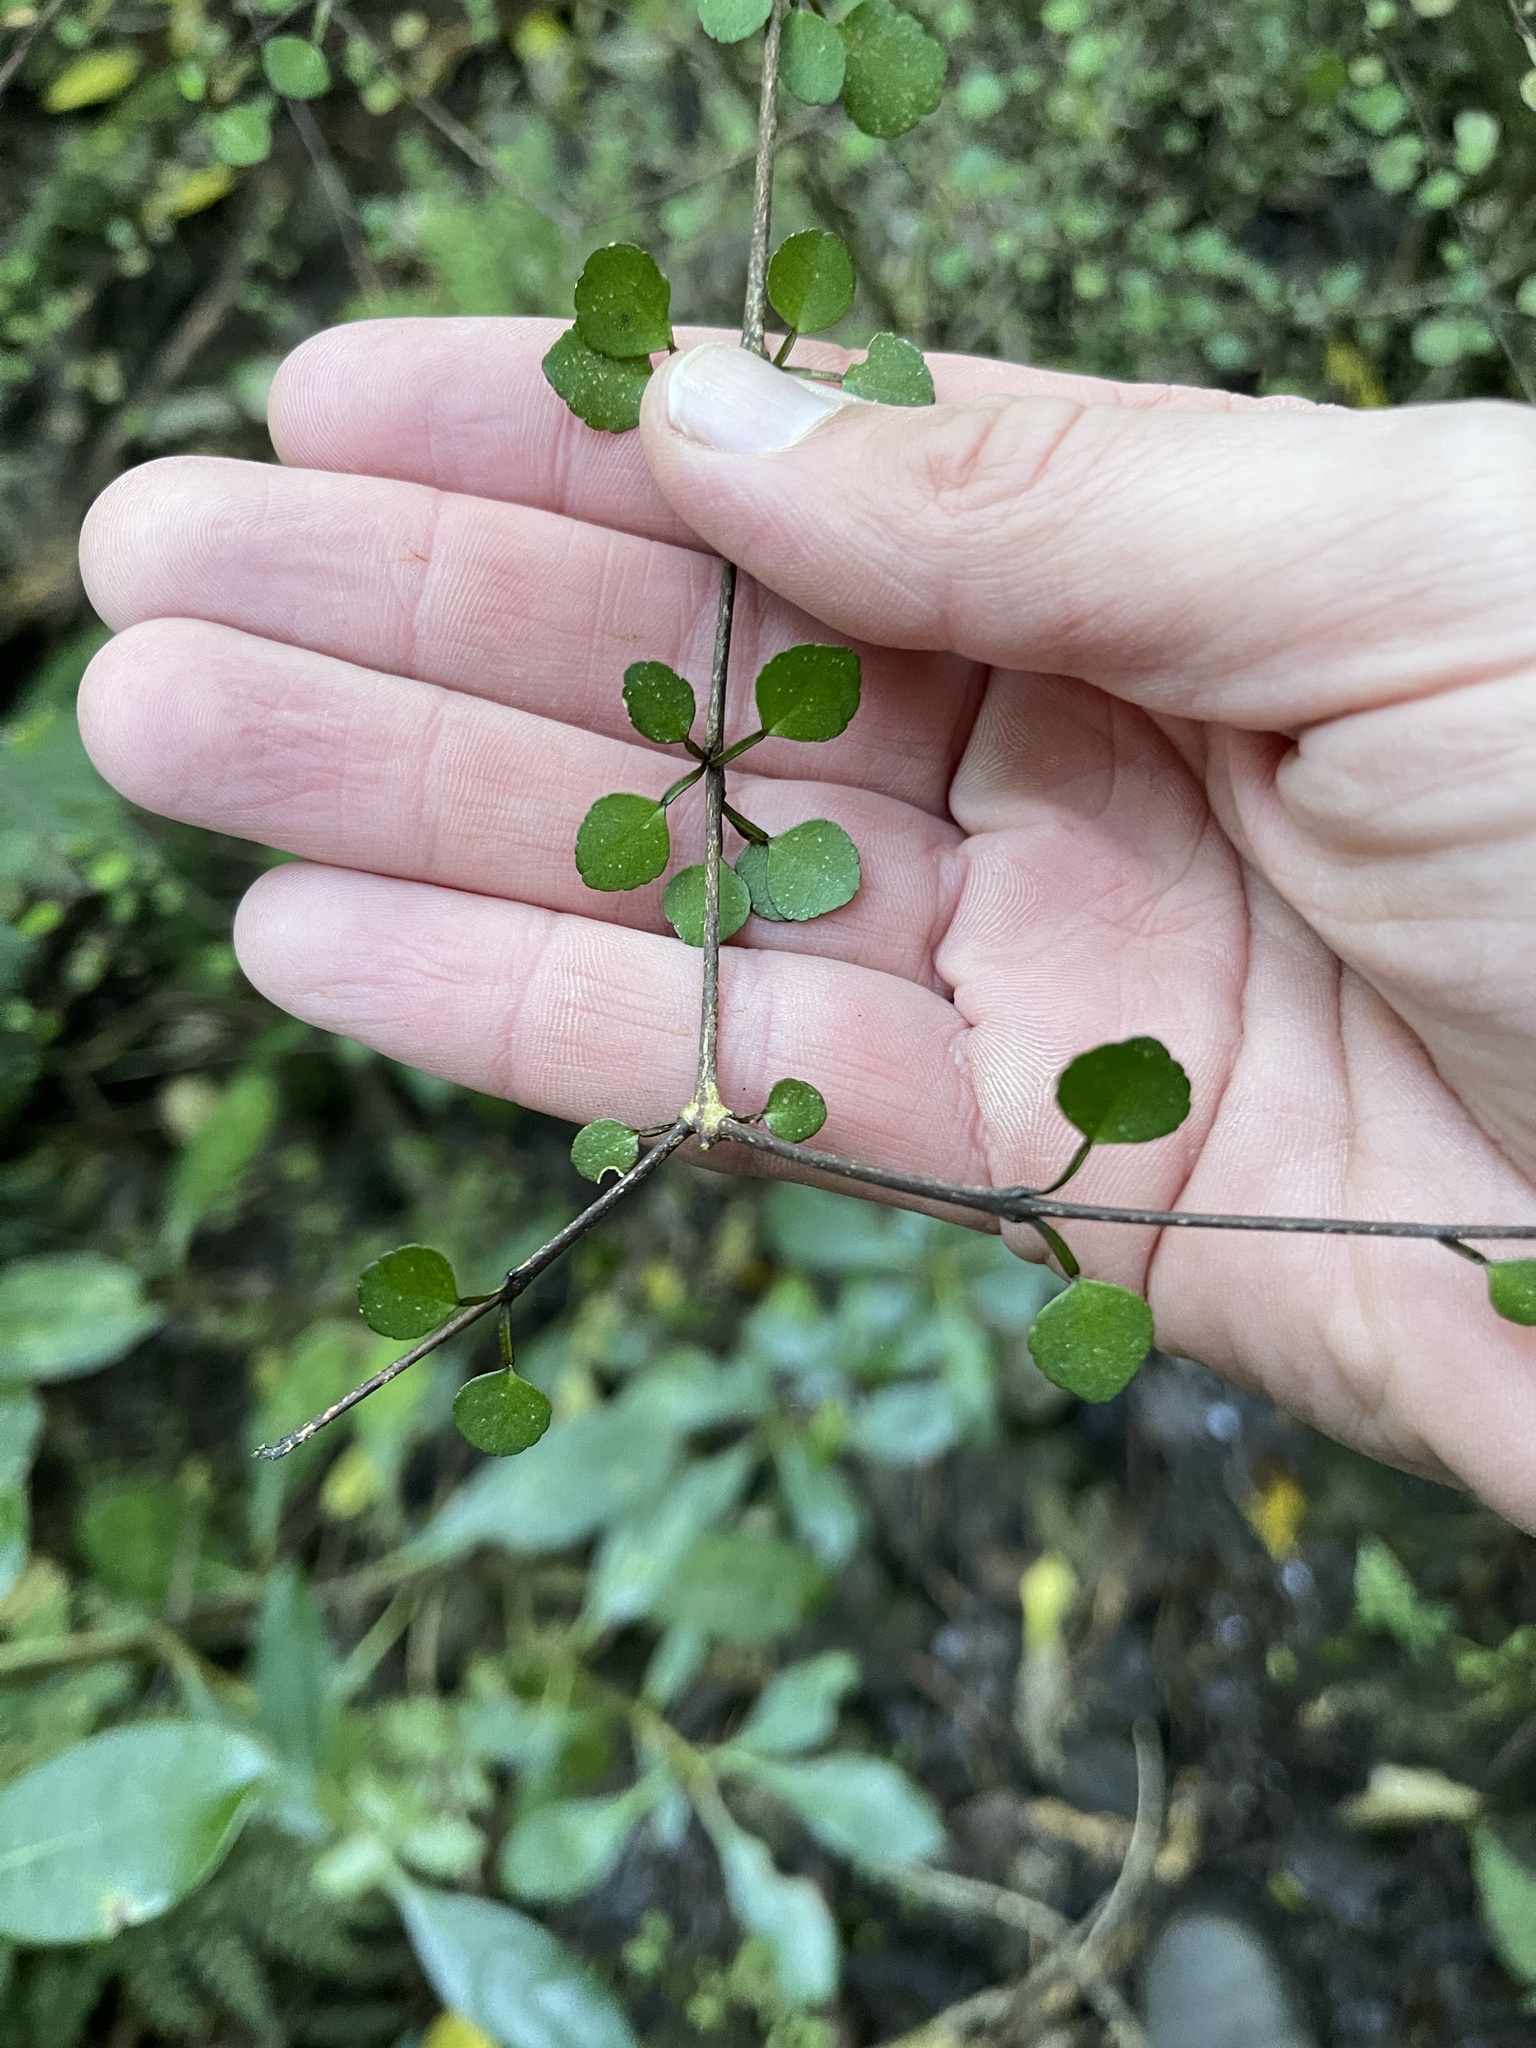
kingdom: Plantae
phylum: Tracheophyta
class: Magnoliopsida
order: Sapindales
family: Rutaceae
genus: Melicope
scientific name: Melicope simplex
